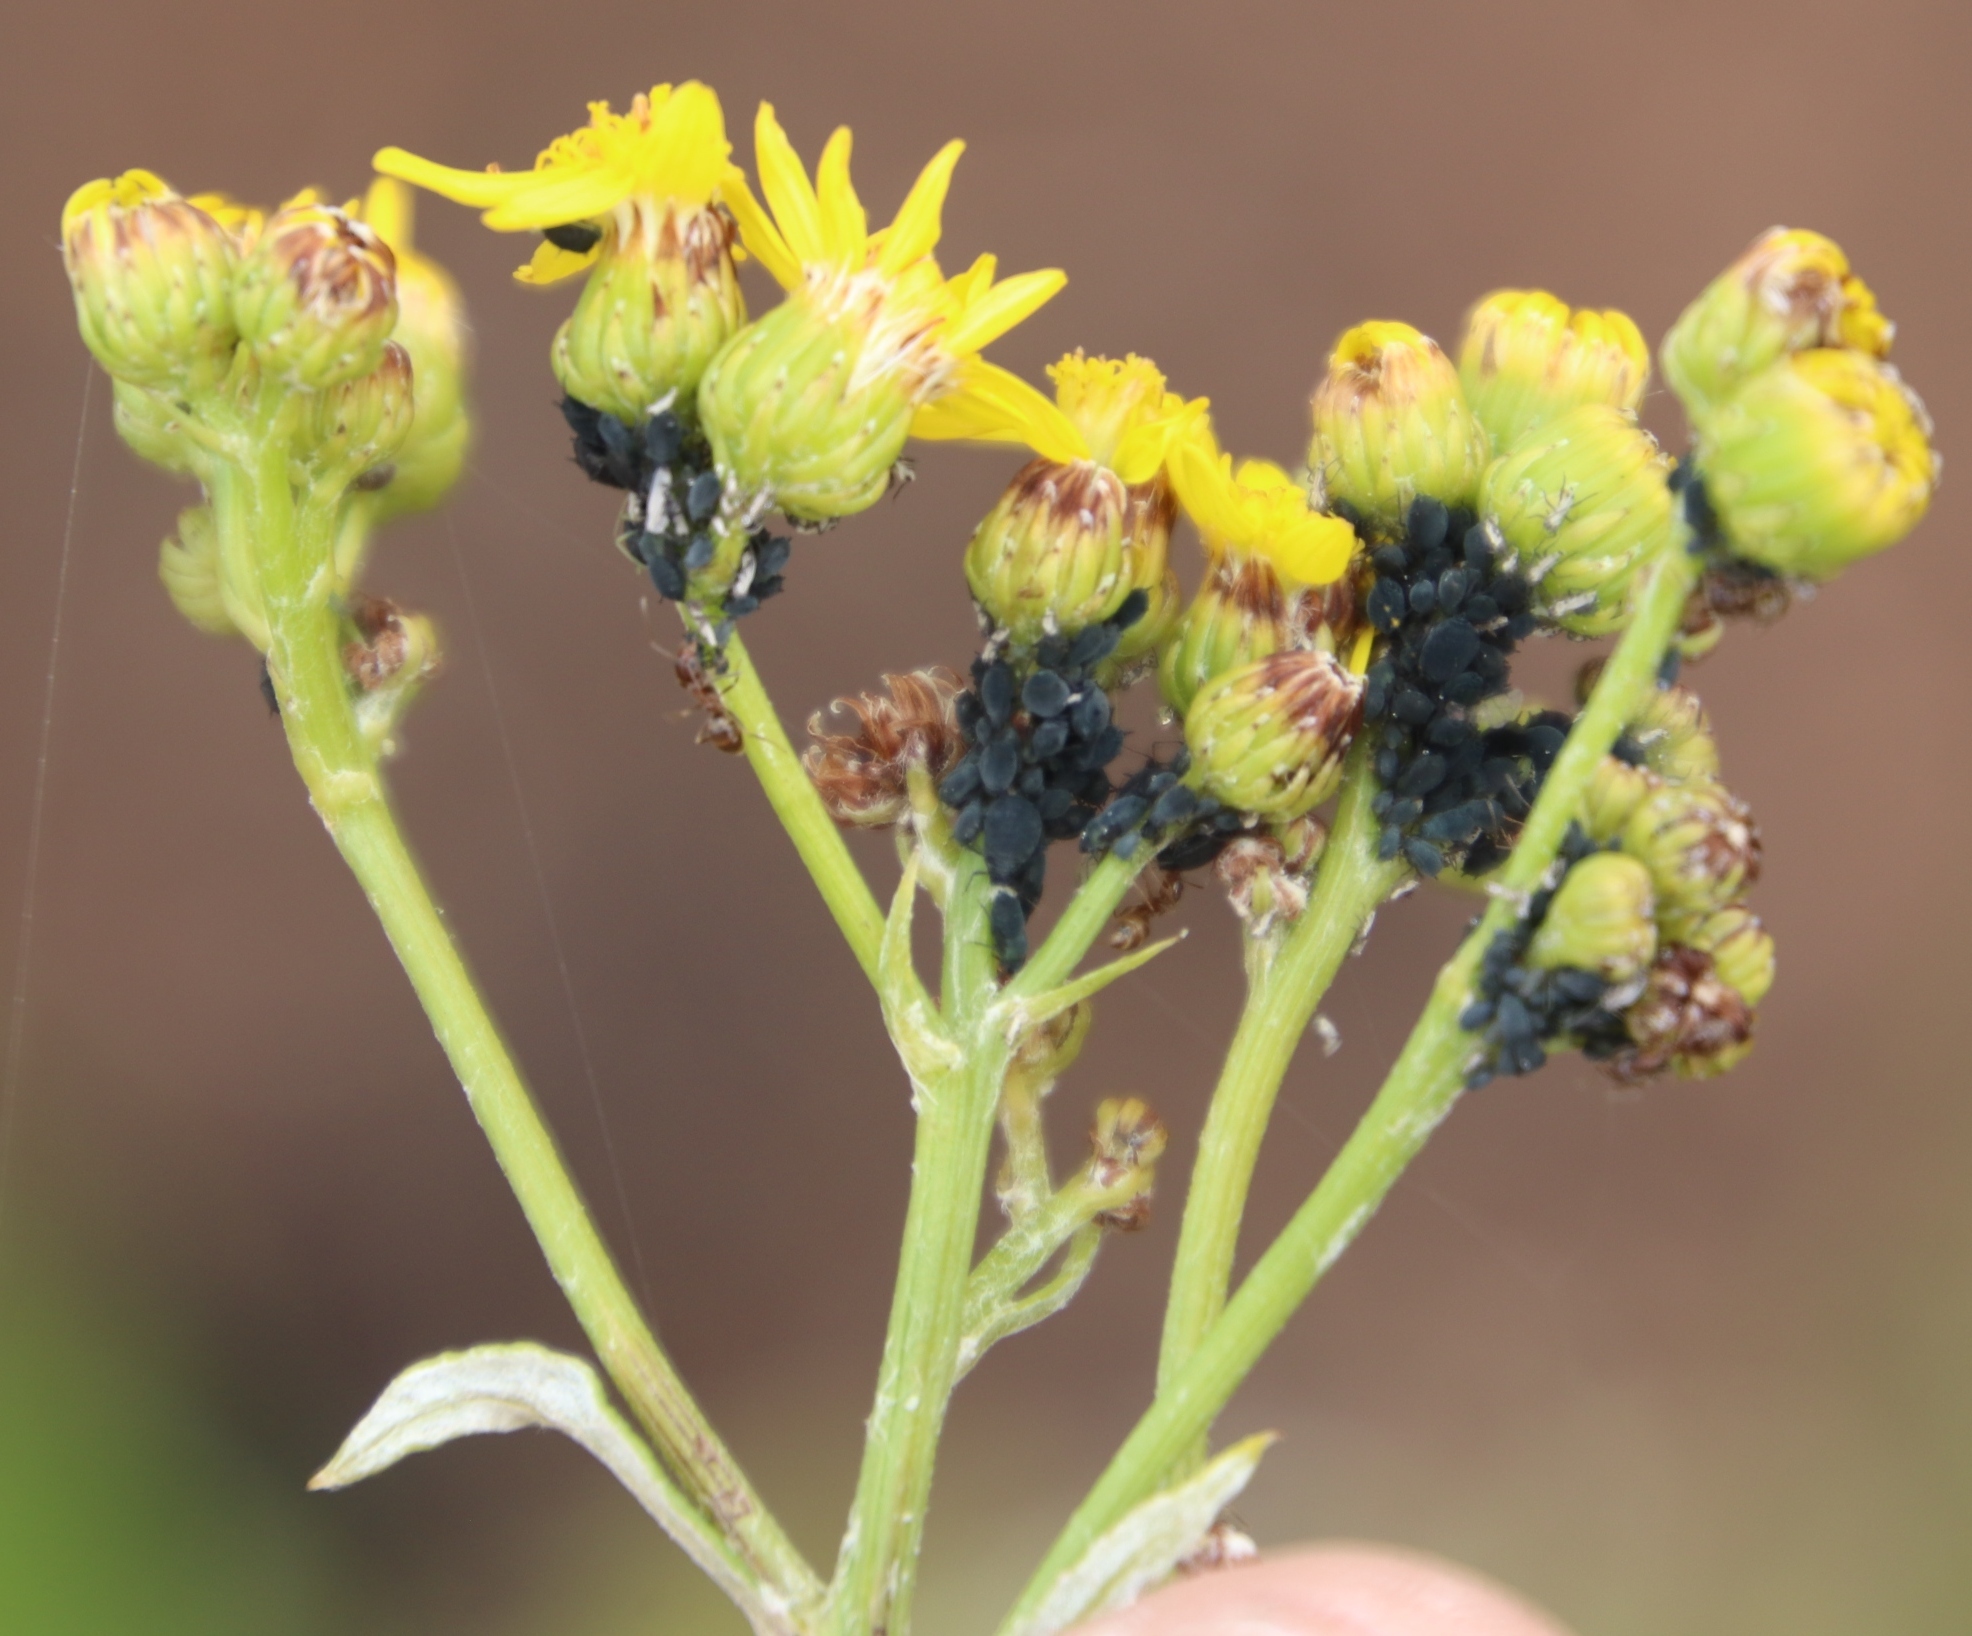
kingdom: Plantae
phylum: Tracheophyta
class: Magnoliopsida
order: Asterales
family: Asteraceae
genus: Senecio
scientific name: Senecio pterophorus
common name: Shoddy ragwort
